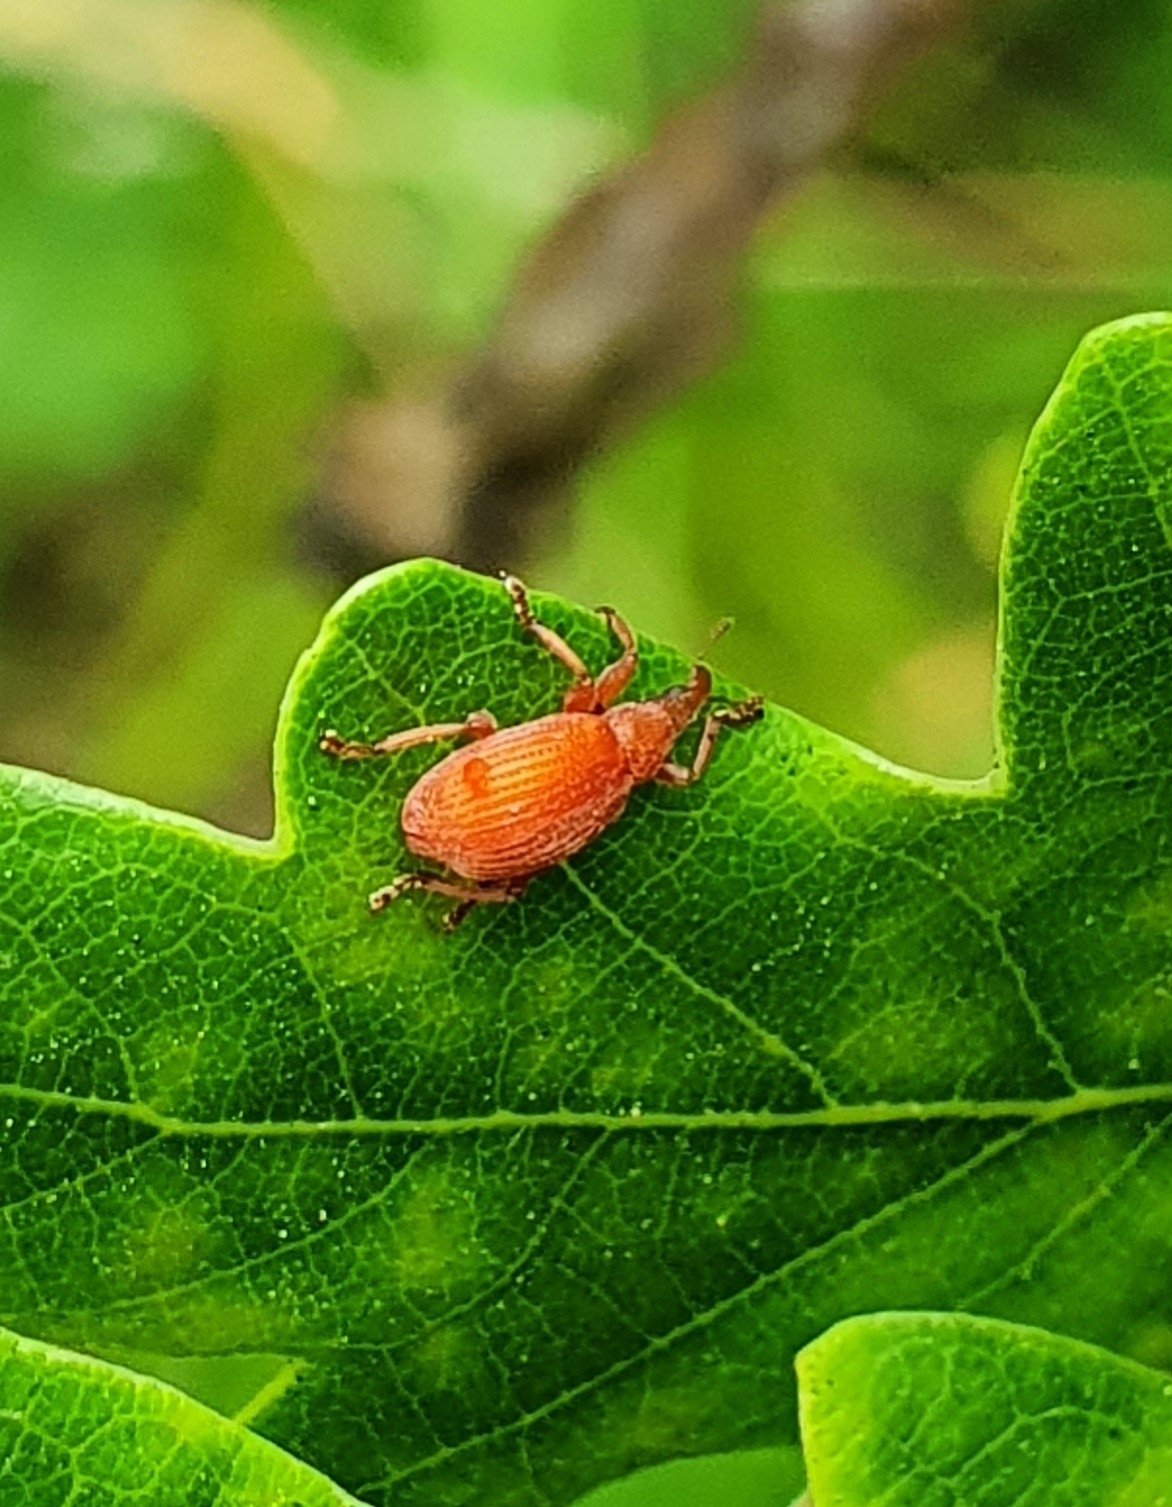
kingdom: Animalia
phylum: Arthropoda
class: Insecta
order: Coleoptera
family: Apionidae
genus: Apion
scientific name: Apion frumentarium
